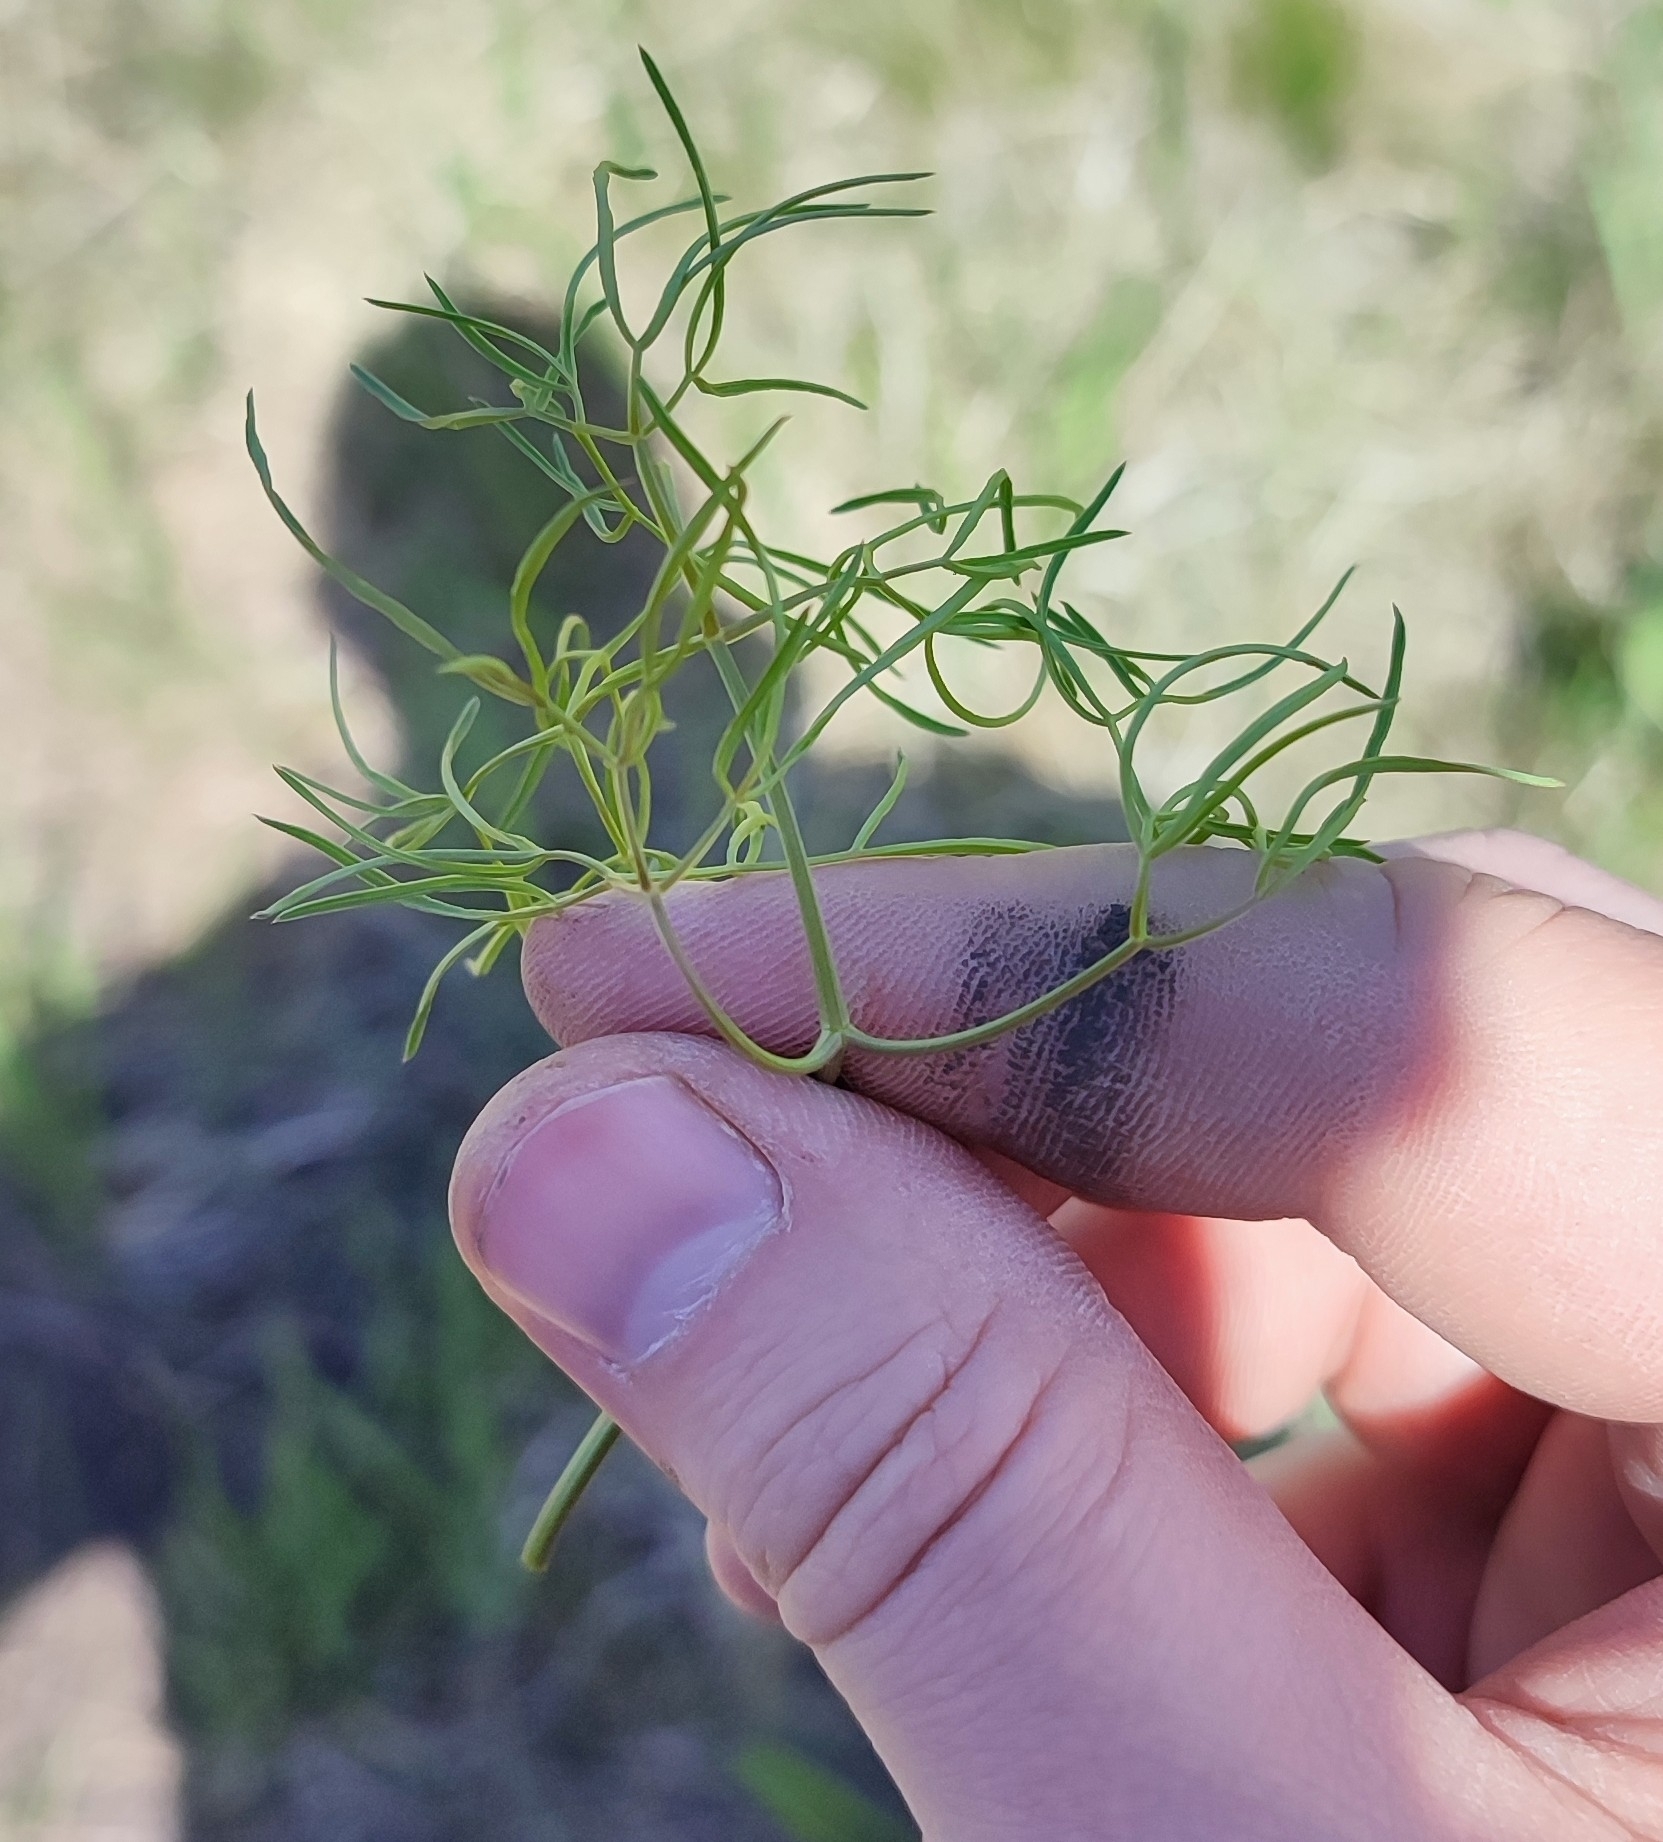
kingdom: Plantae
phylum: Tracheophyta
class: Magnoliopsida
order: Apiales
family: Apiaceae
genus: Cenolophium
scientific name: Cenolophium fischeri
